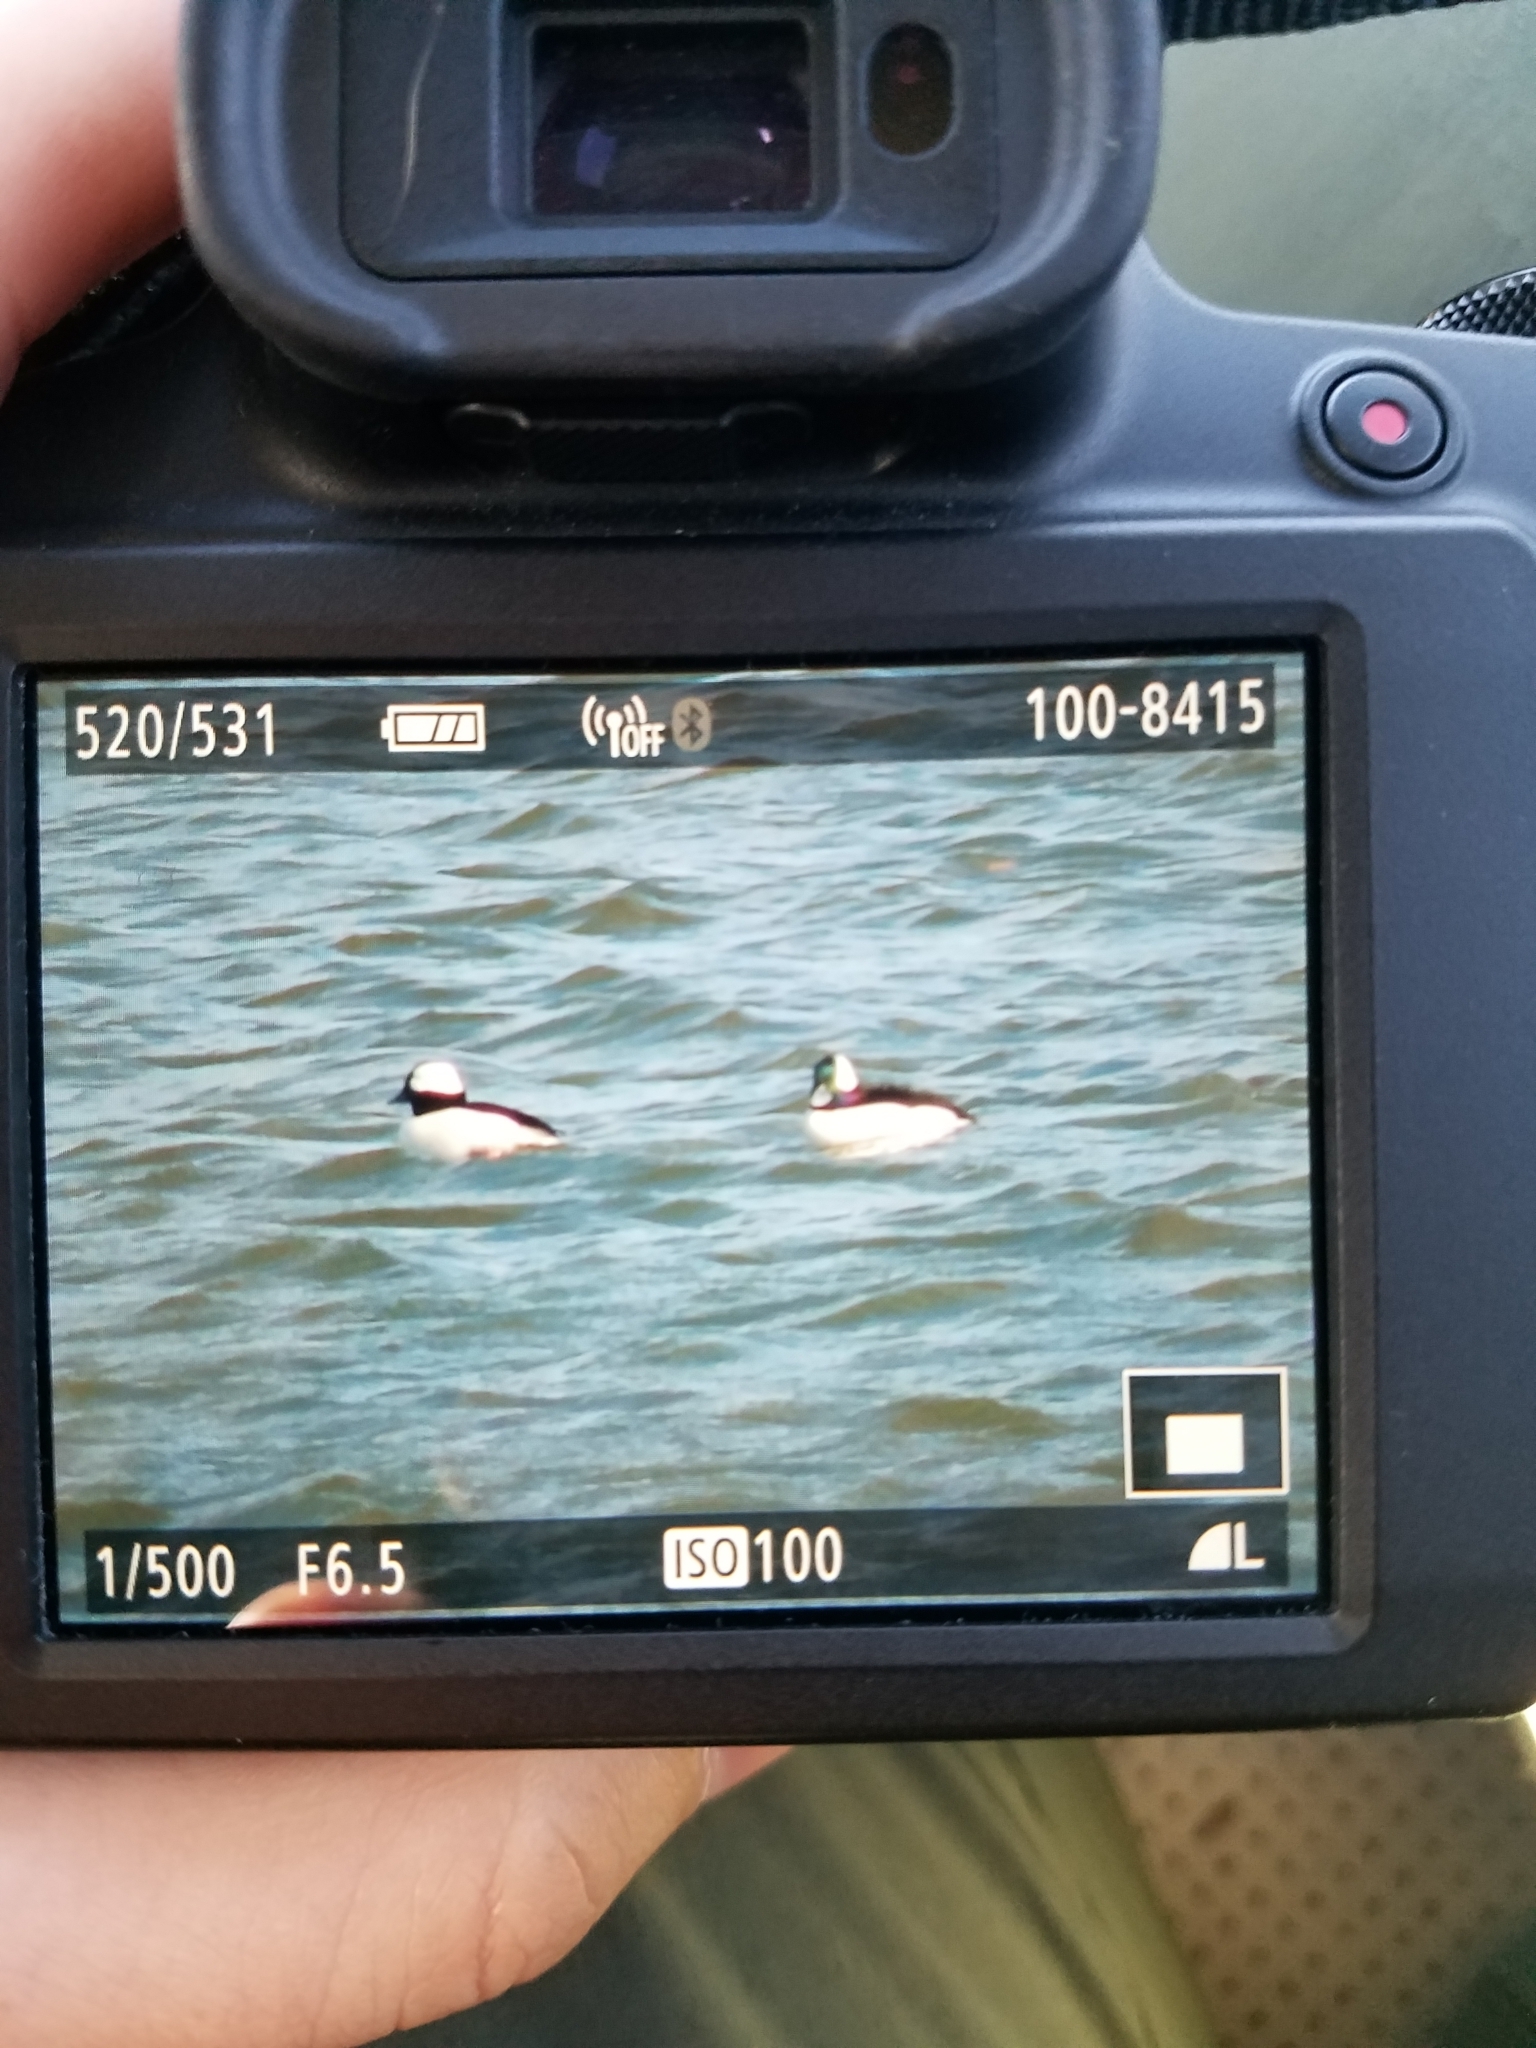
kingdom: Animalia
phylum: Chordata
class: Aves
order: Anseriformes
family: Anatidae
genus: Bucephala
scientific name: Bucephala albeola
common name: Bufflehead
